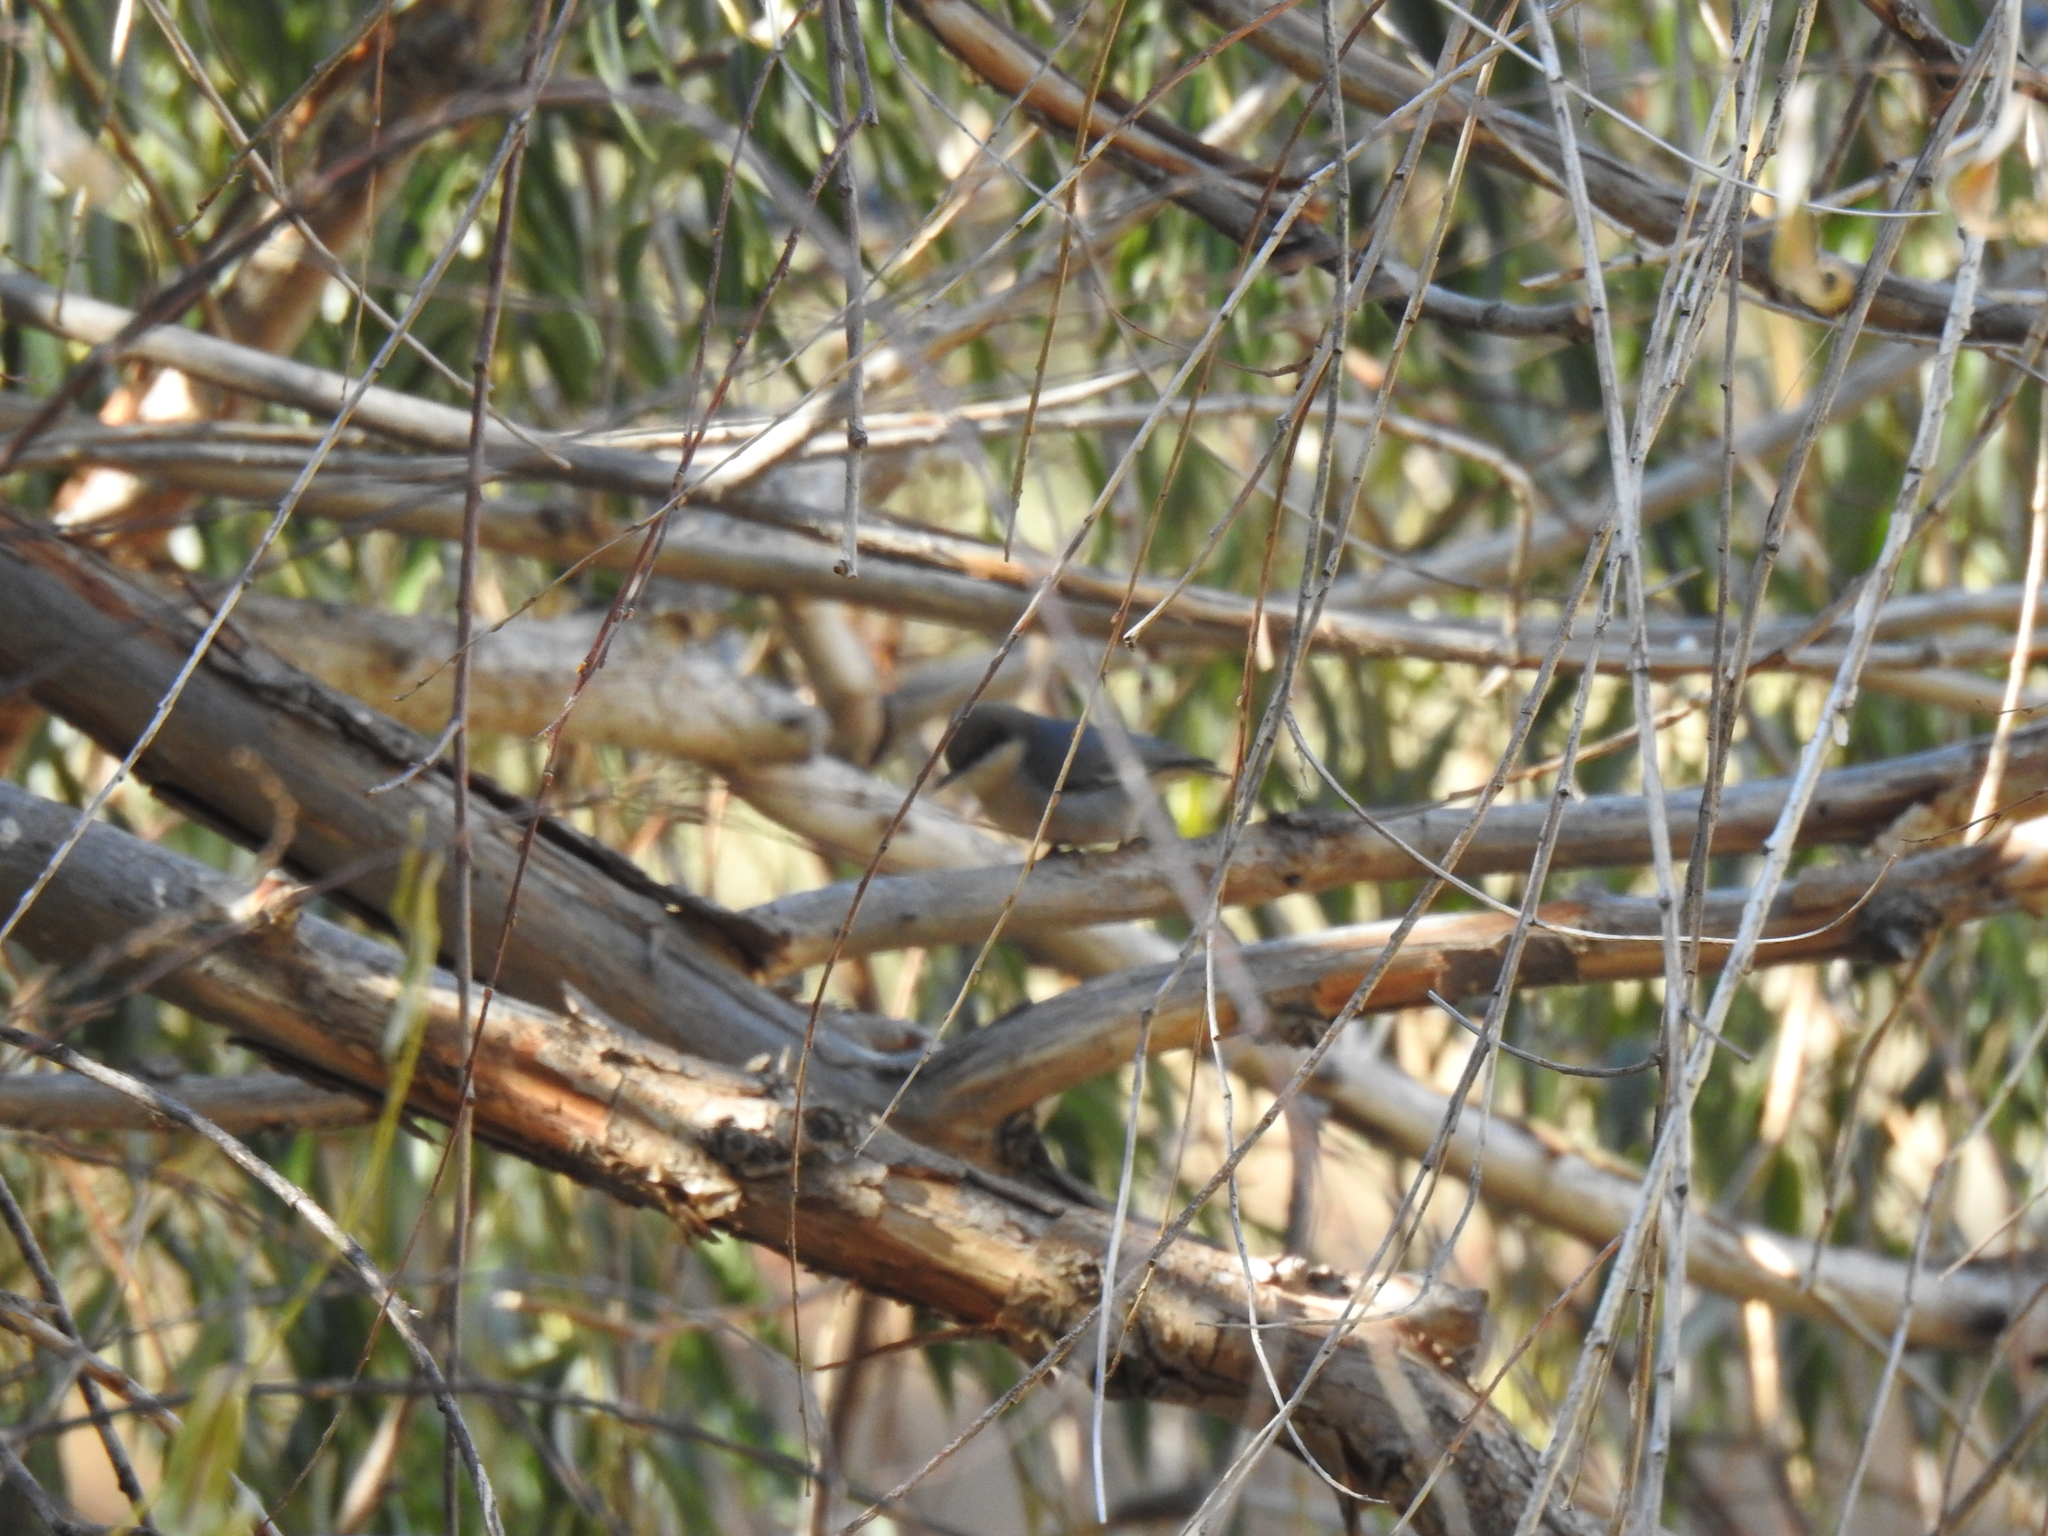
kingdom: Animalia
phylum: Chordata
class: Aves
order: Passeriformes
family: Sittidae
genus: Sitta
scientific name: Sitta pygmaea
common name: Pygmy nuthatch
